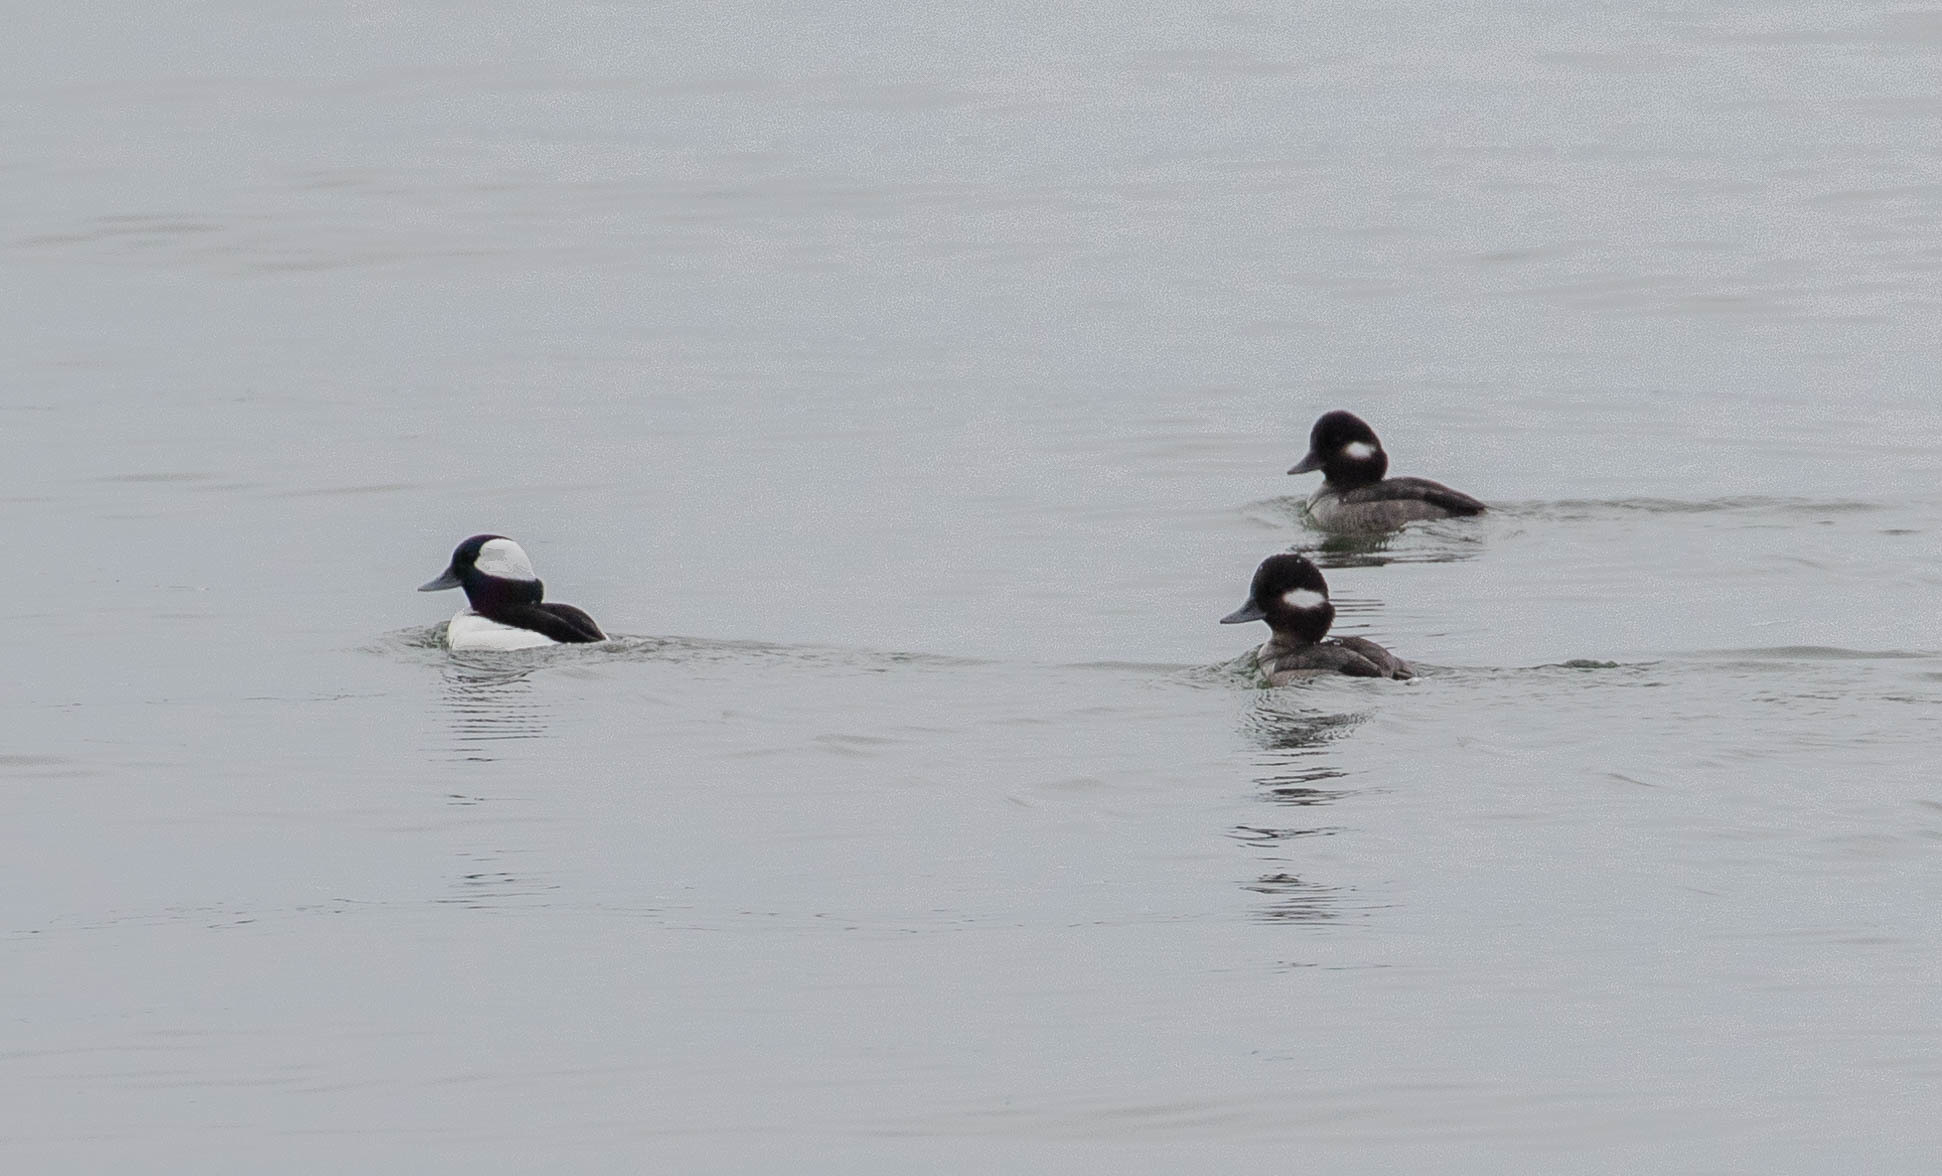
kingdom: Animalia
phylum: Chordata
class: Aves
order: Anseriformes
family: Anatidae
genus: Bucephala
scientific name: Bucephala albeola
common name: Bufflehead
